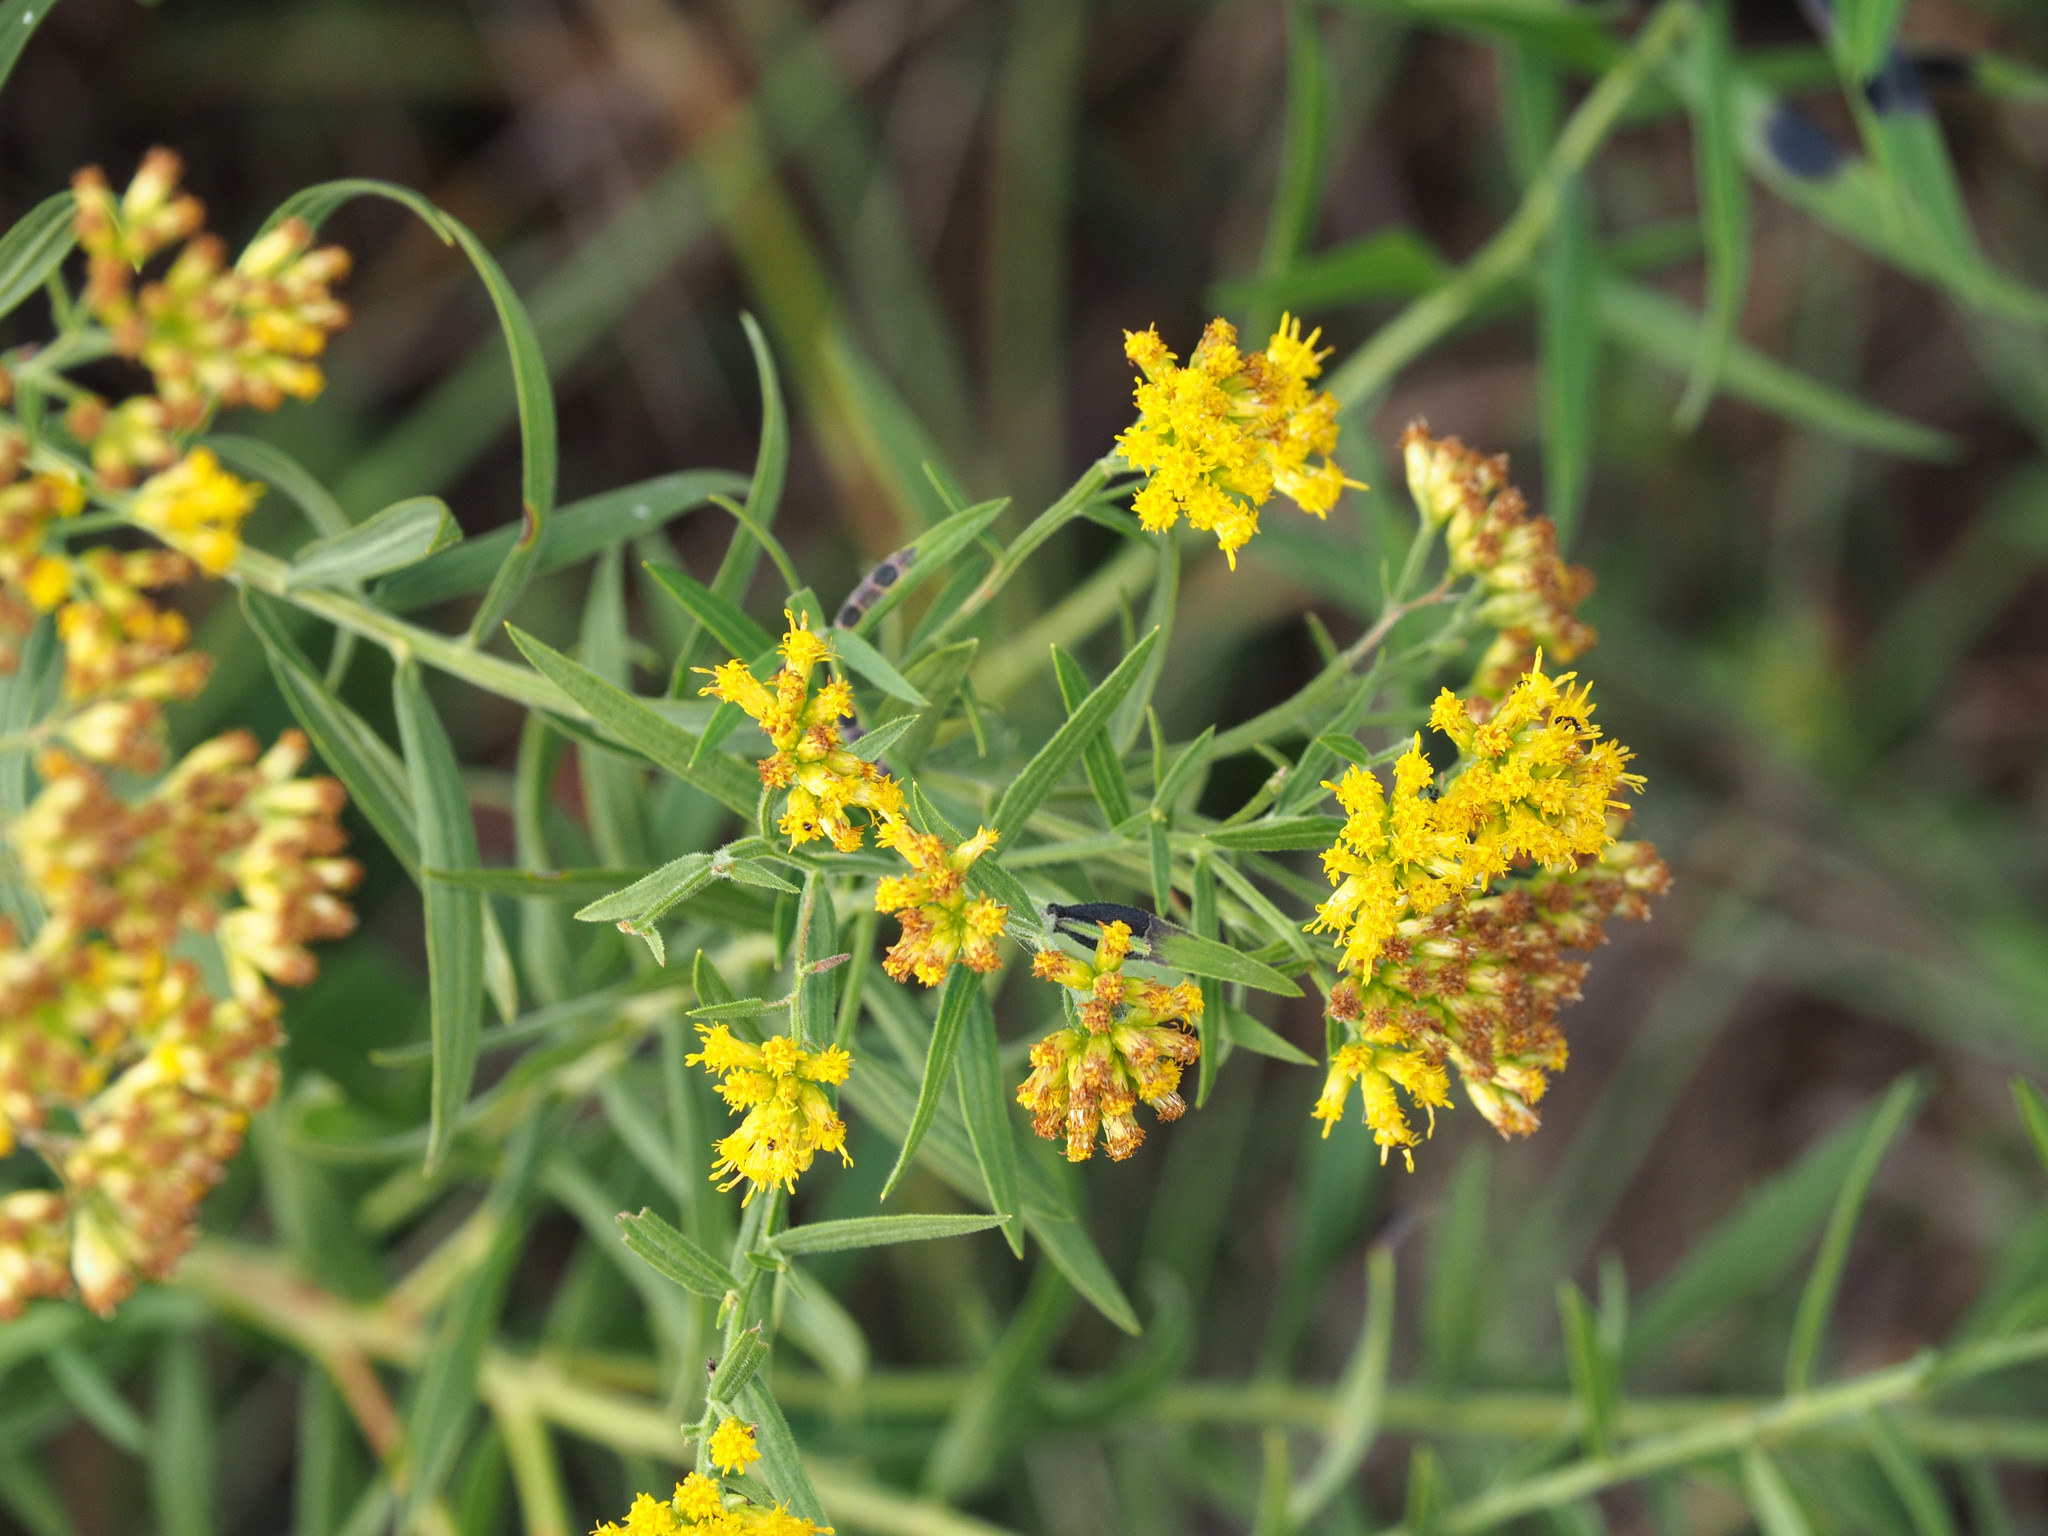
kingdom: Animalia
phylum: Arthropoda
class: Insecta
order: Diptera
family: Cecidomyiidae
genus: Asteromyia
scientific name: Asteromyia euthamiae
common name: Euthamia leaf gall midge
